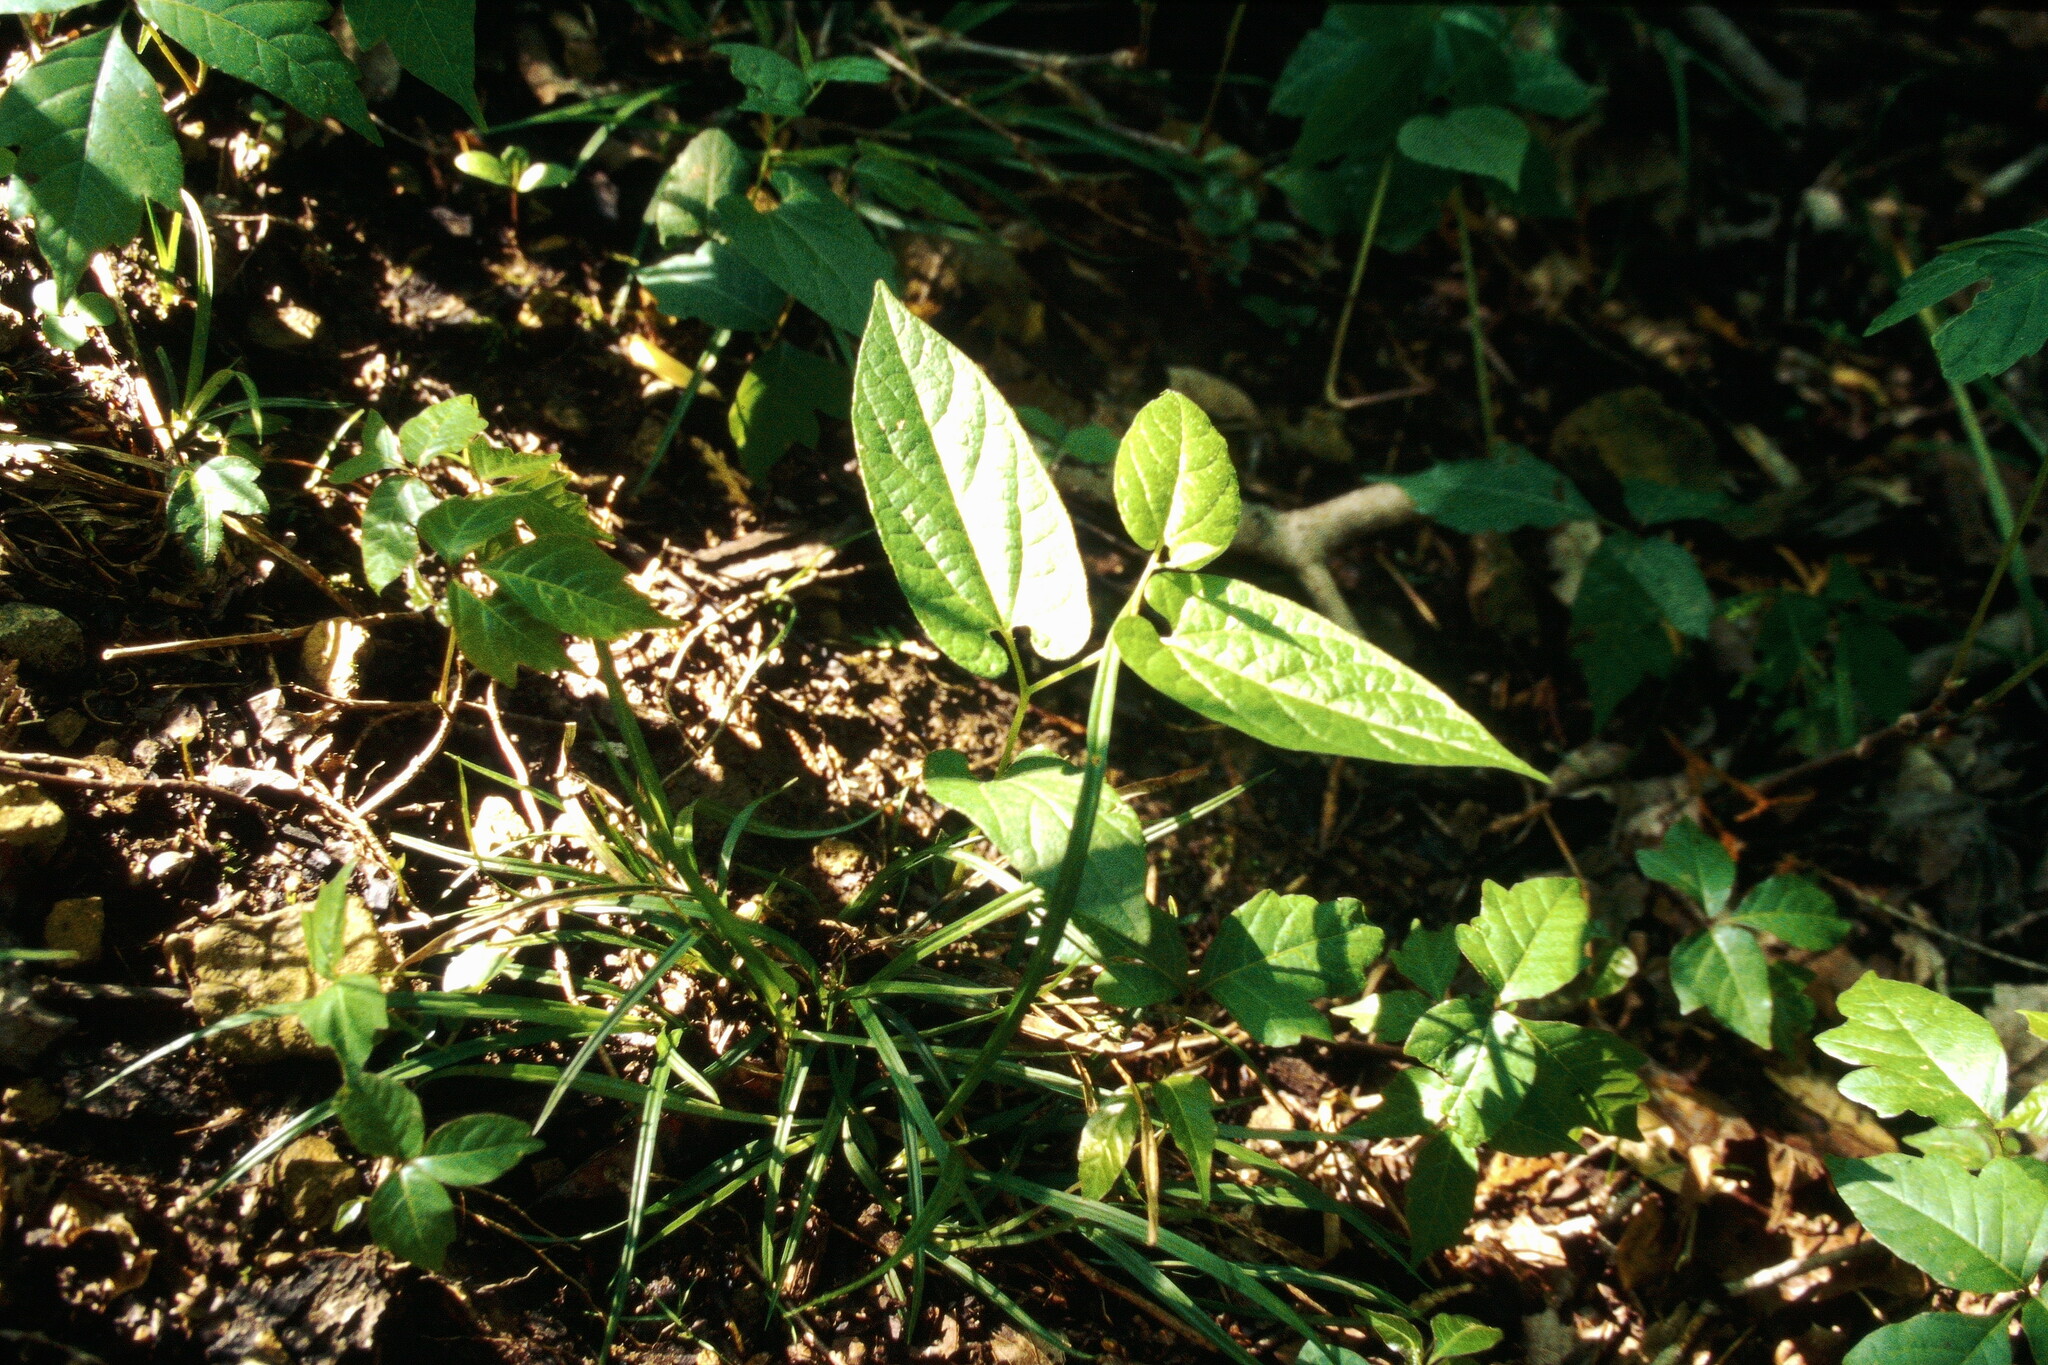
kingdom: Plantae
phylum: Tracheophyta
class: Magnoliopsida
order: Piperales
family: Aristolochiaceae
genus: Endodeca
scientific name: Endodeca serpentaria
